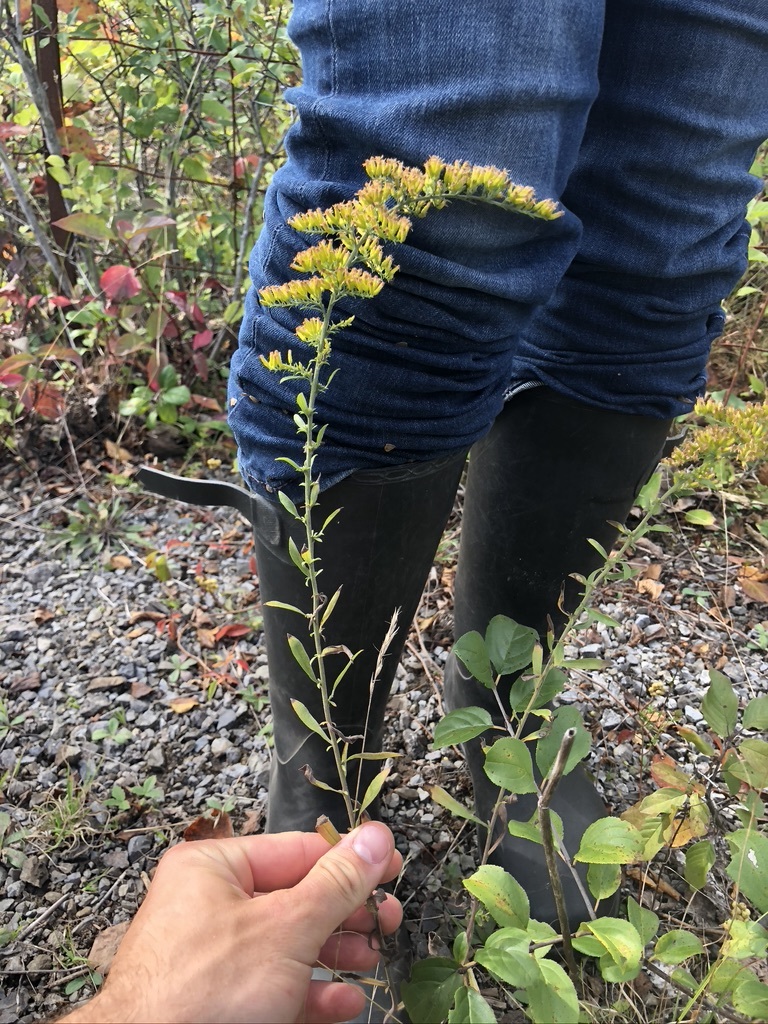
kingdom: Plantae
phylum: Tracheophyta
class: Magnoliopsida
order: Asterales
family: Asteraceae
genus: Solidago
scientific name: Solidago nemoralis
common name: Grey goldenrod
